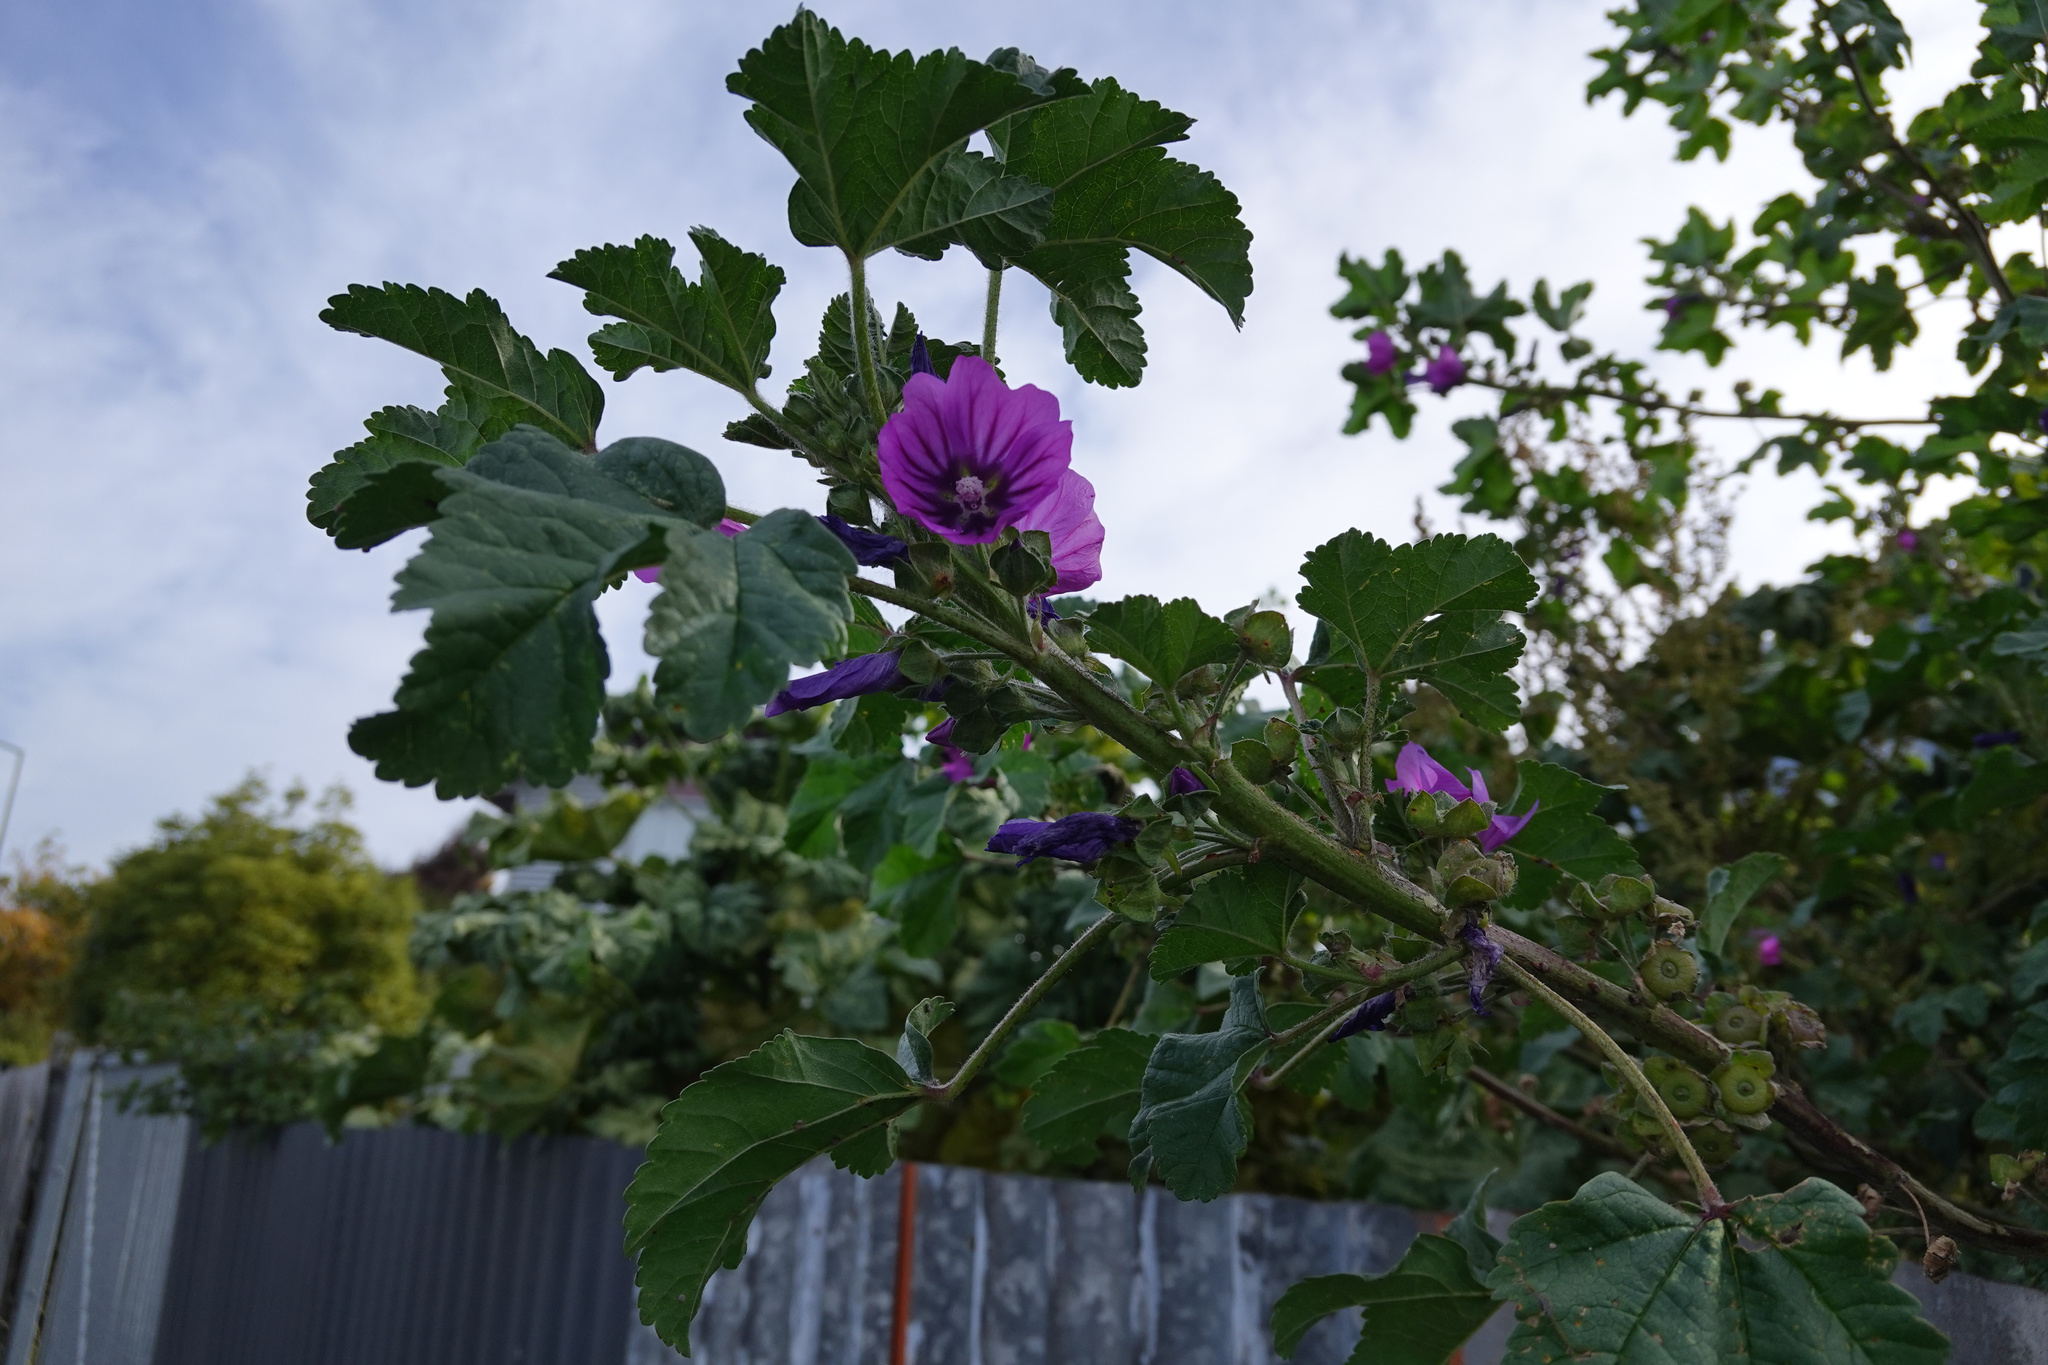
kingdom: Plantae
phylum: Tracheophyta
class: Magnoliopsida
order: Malvales
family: Malvaceae
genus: Malva
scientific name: Malva arborea
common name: Tree mallow
